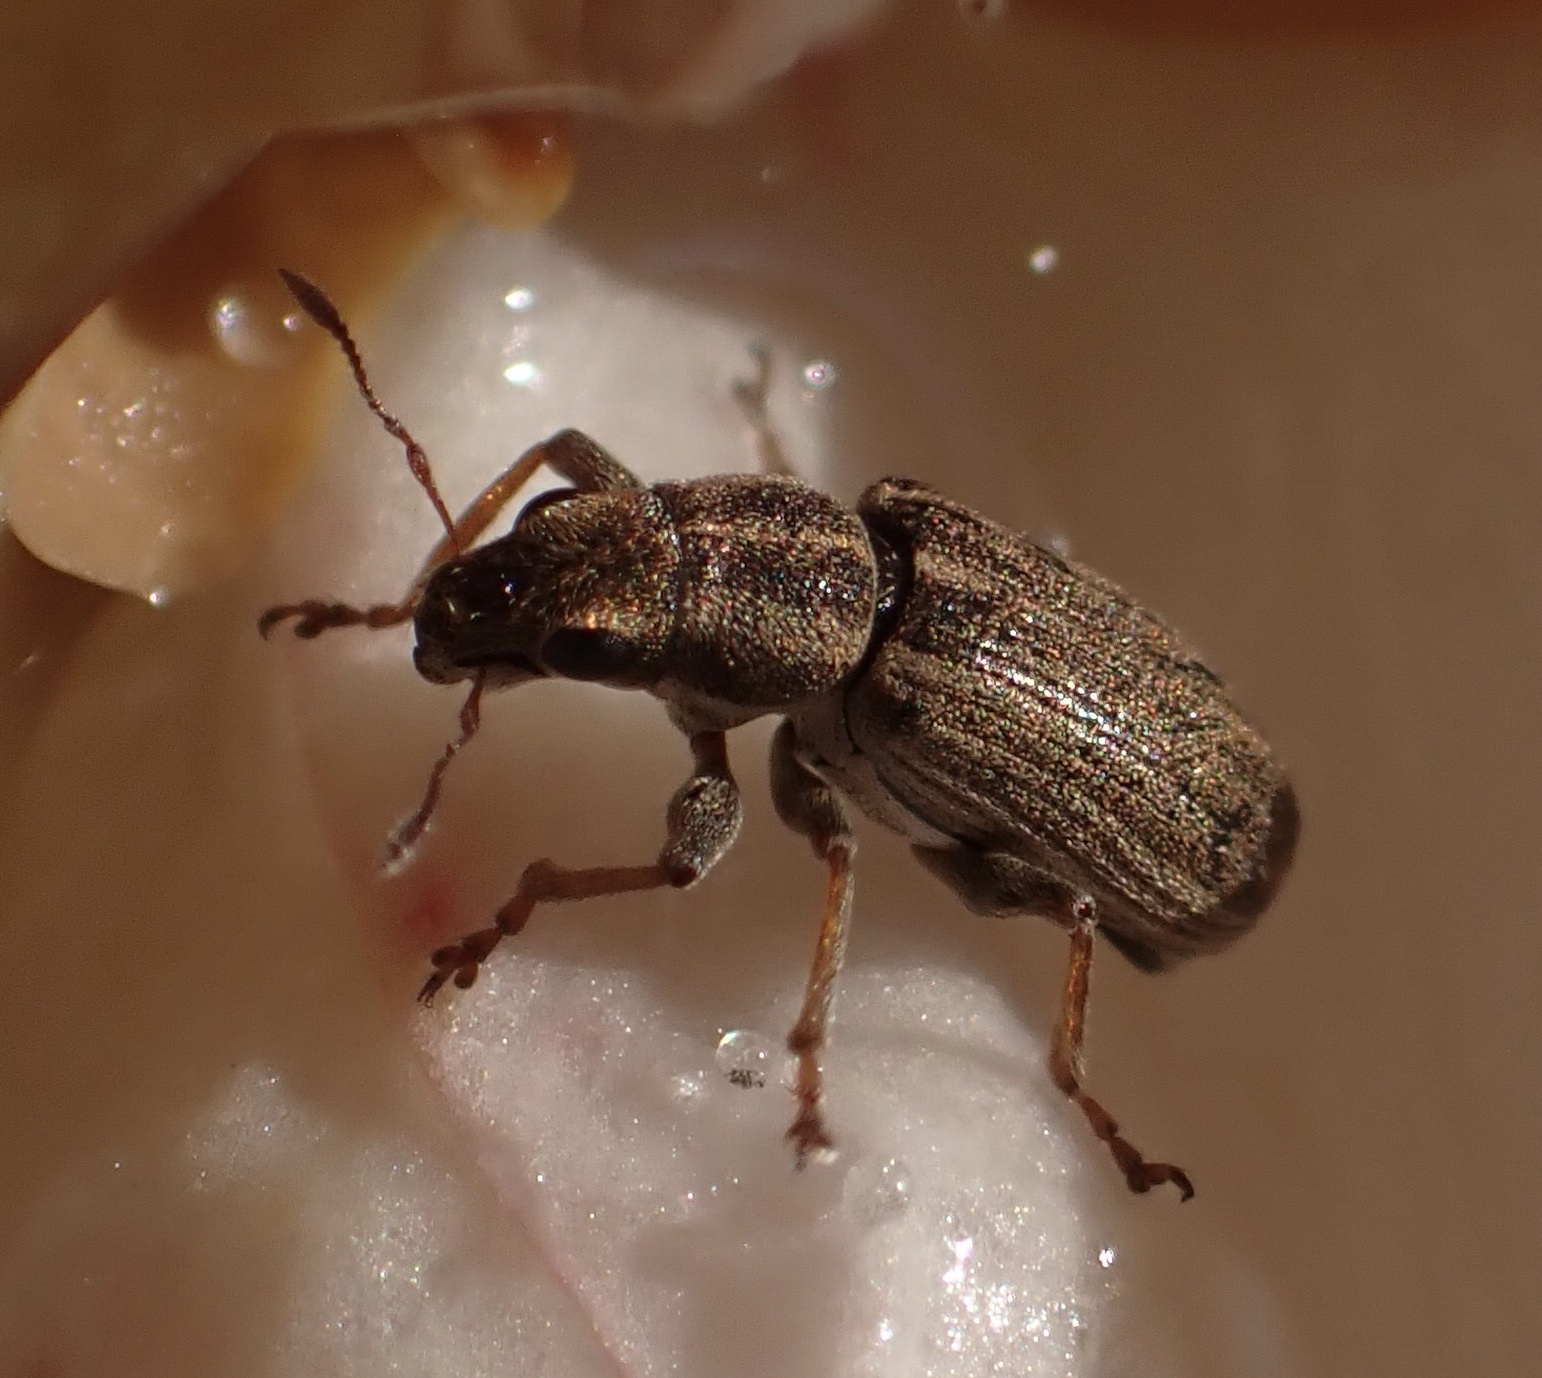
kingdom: Animalia
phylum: Arthropoda
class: Insecta
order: Coleoptera
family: Curculionidae
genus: Sitona
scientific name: Sitona lineatus
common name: Weevil
